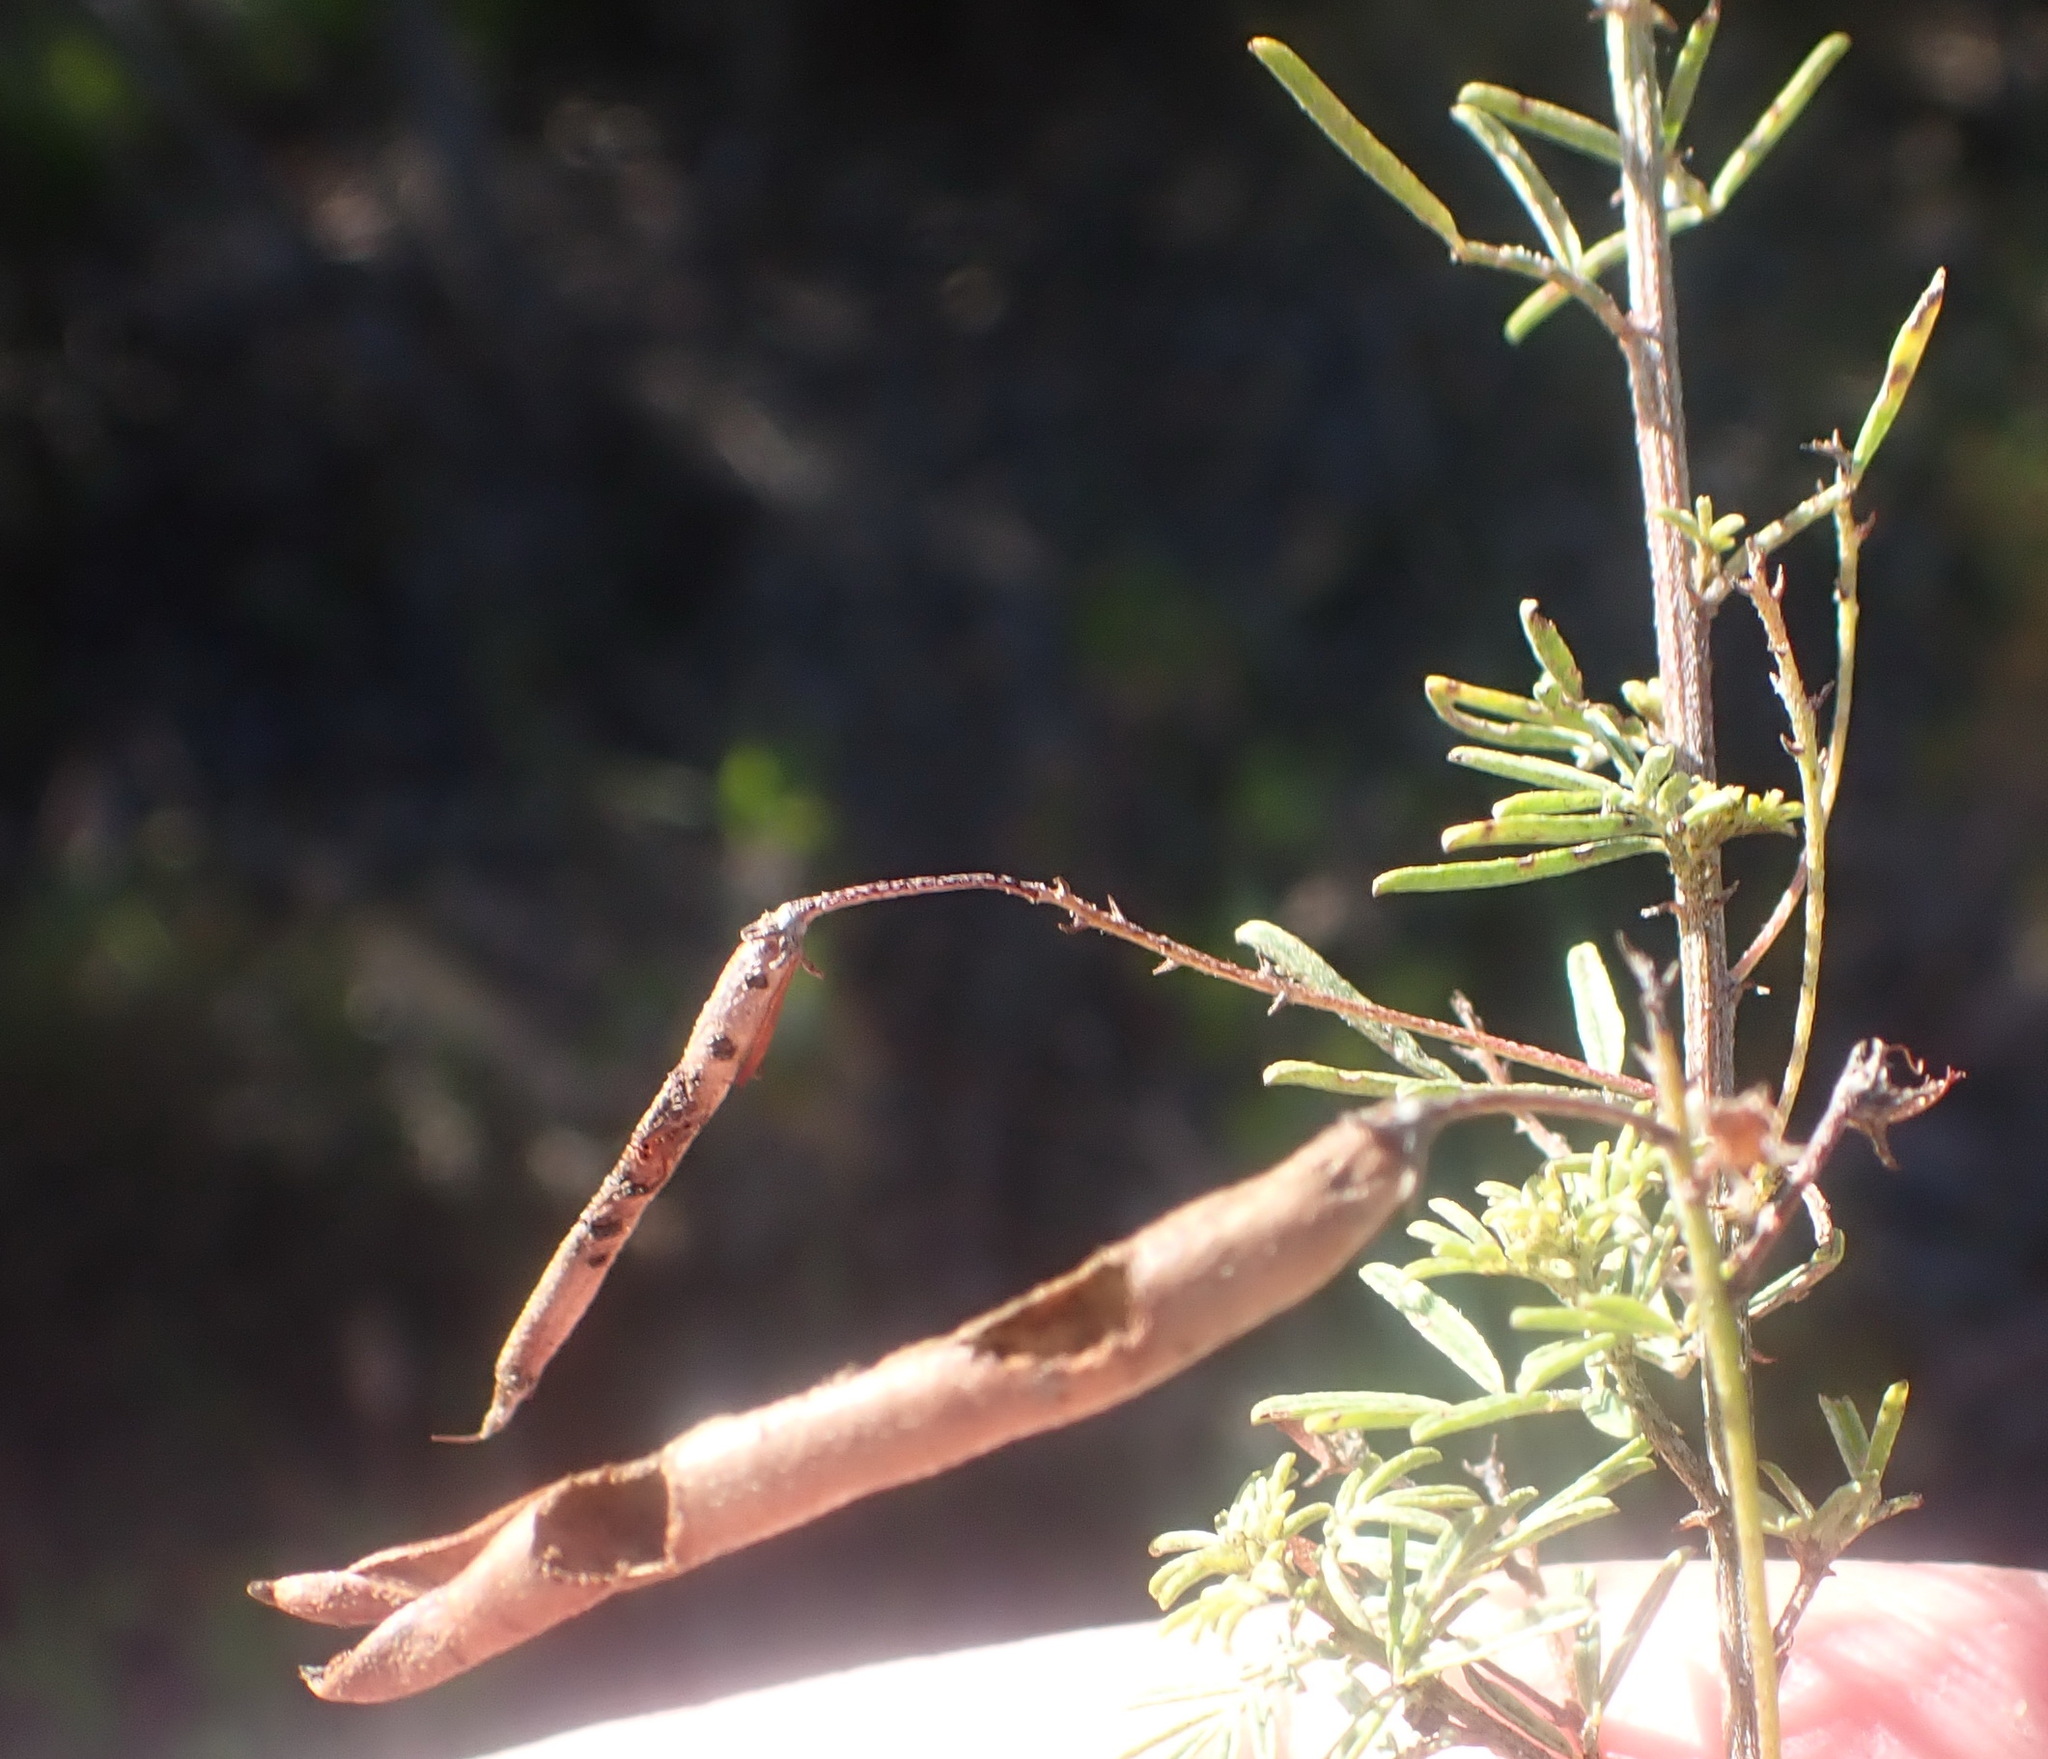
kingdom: Plantae
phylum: Tracheophyta
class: Magnoliopsida
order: Fabales
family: Fabaceae
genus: Indigofera
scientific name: Indigofera verrucosa
